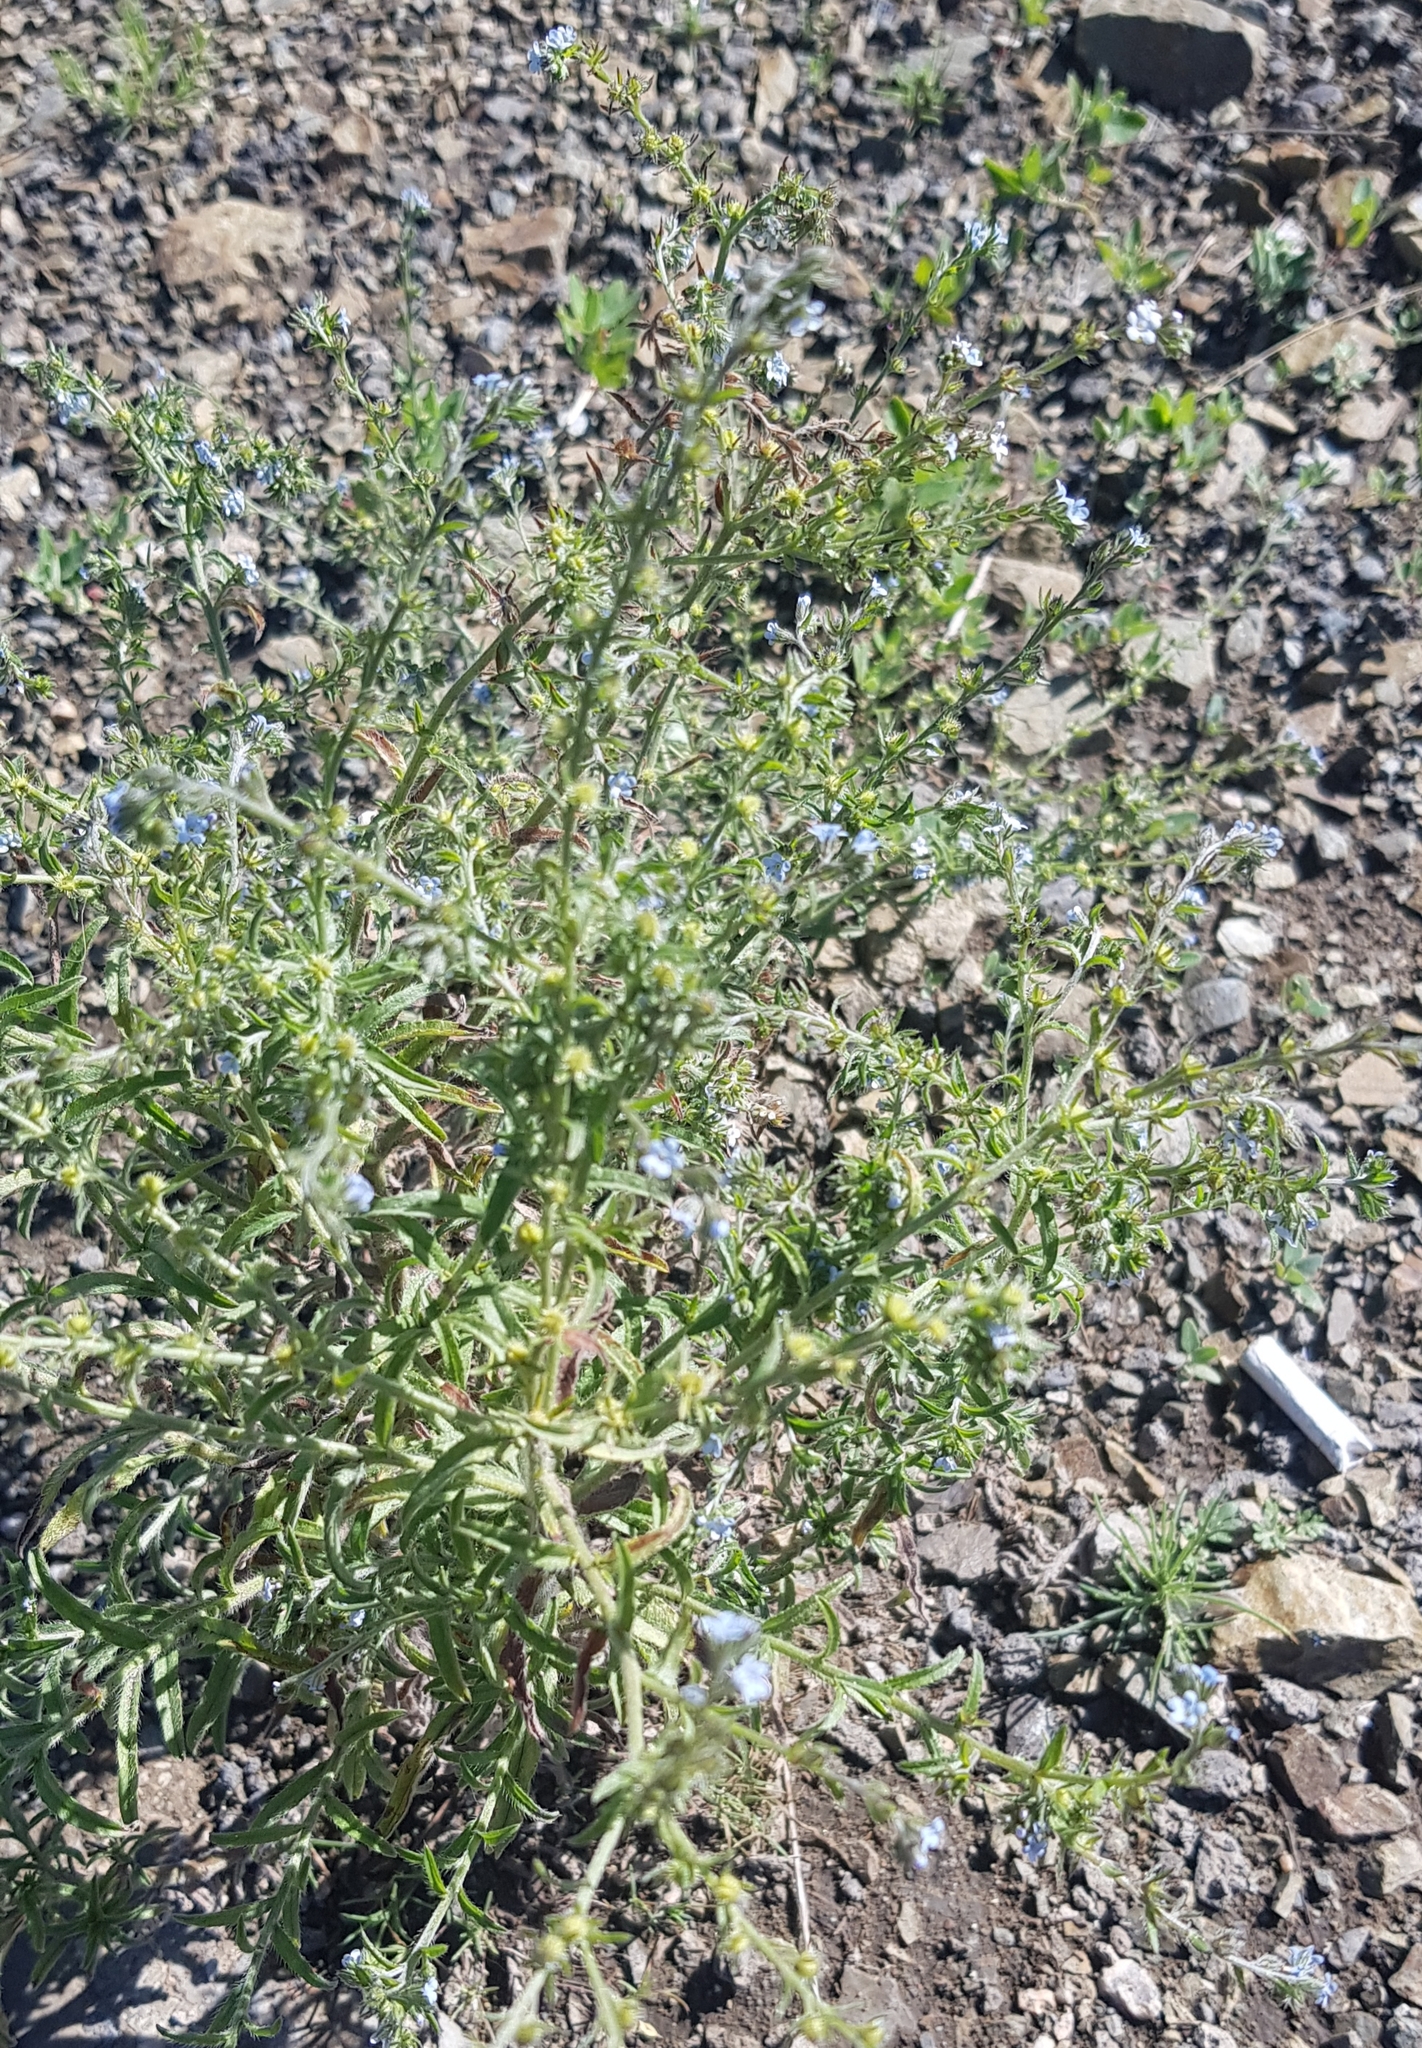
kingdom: Plantae
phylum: Tracheophyta
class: Magnoliopsida
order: Boraginales
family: Boraginaceae
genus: Lappula
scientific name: Lappula squarrosa
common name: European stickseed
